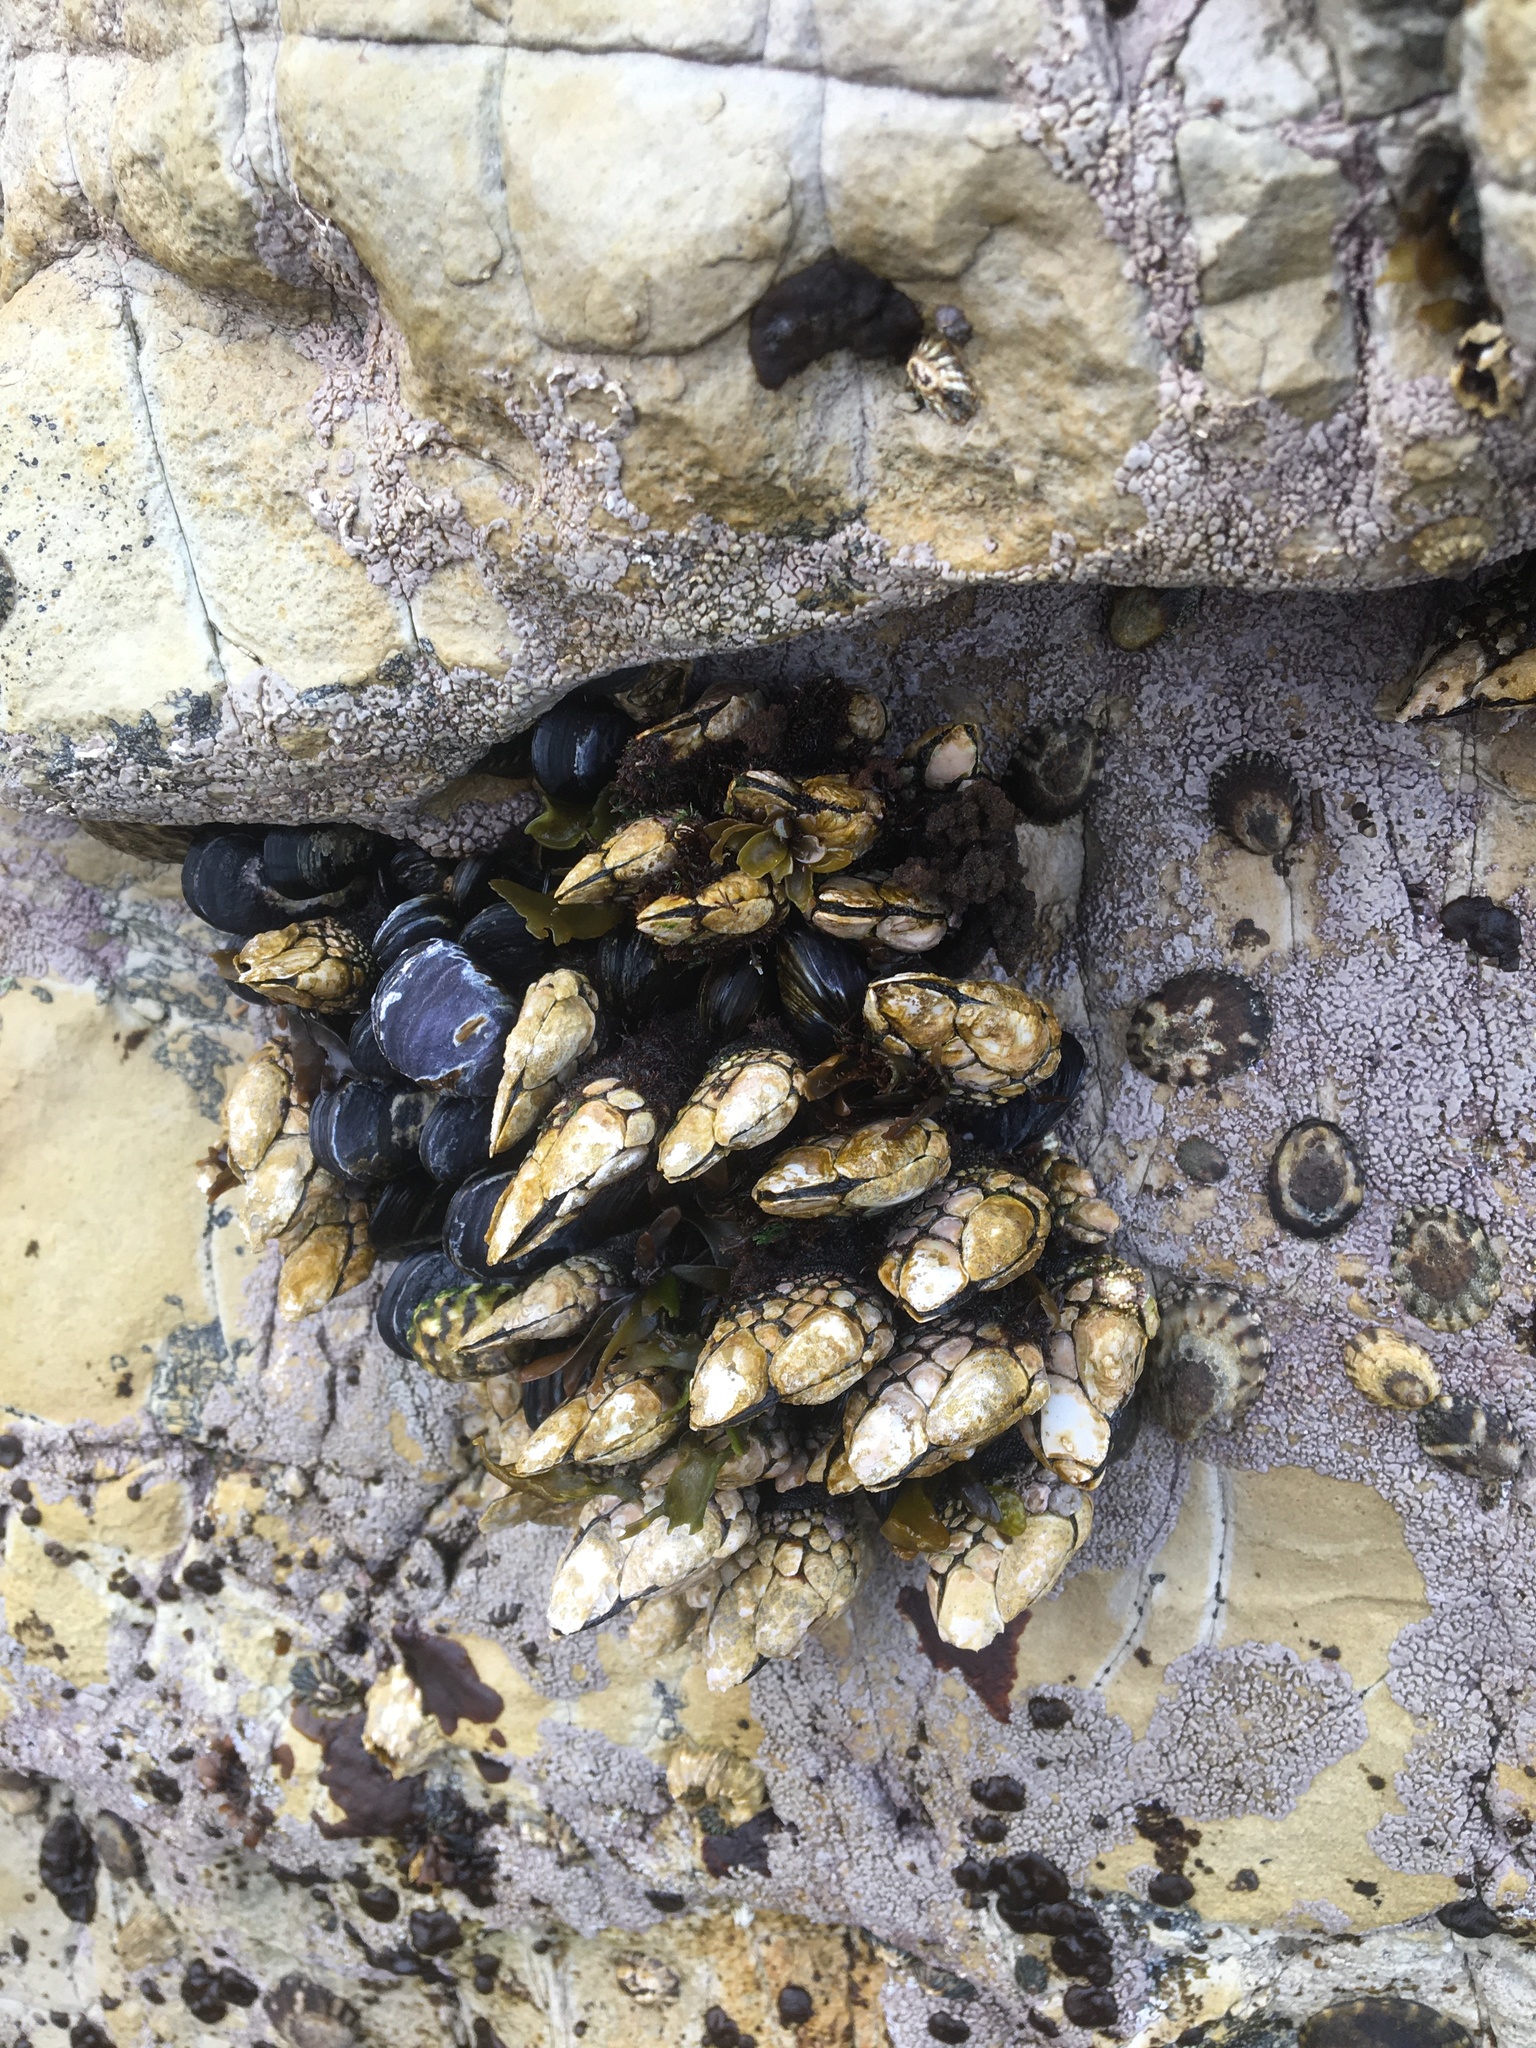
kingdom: Animalia
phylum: Arthropoda
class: Maxillopoda
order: Pedunculata
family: Pollicipedidae
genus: Pollicipes
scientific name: Pollicipes polymerus
